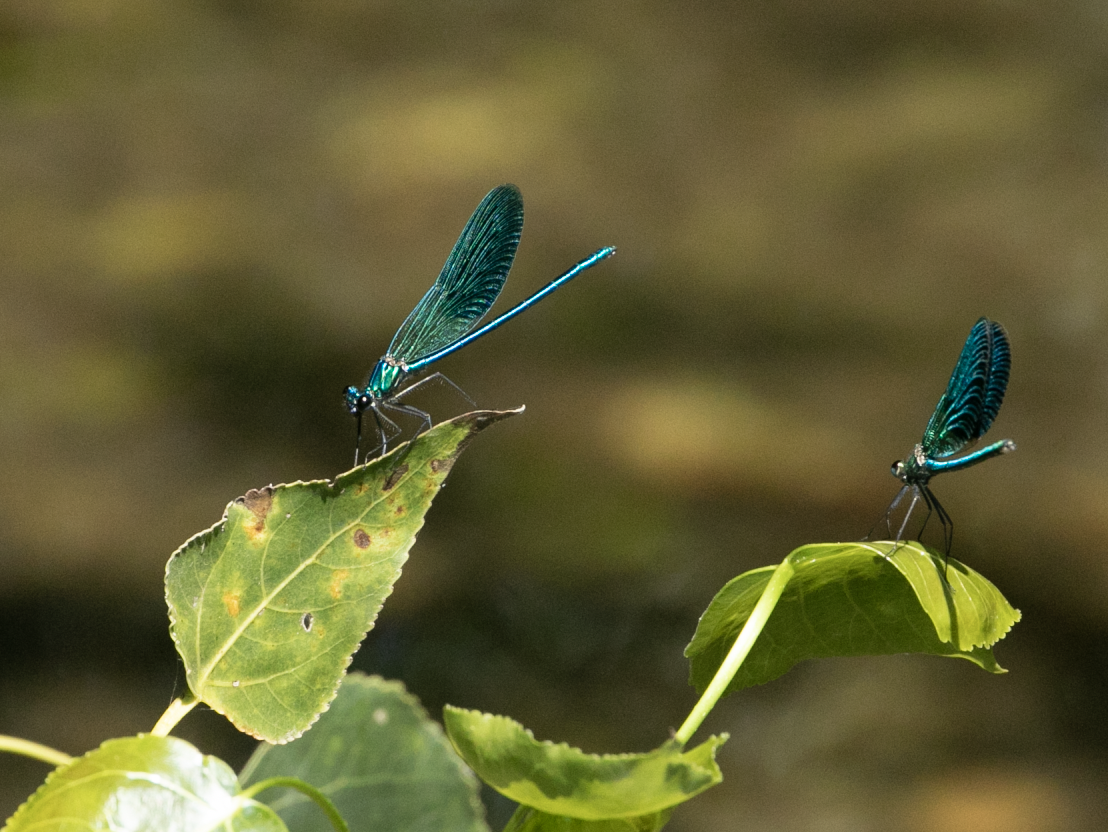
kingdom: Animalia
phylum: Arthropoda
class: Insecta
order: Odonata
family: Calopterygidae
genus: Calopteryx
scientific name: Calopteryx splendens
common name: Banded demoiselle
